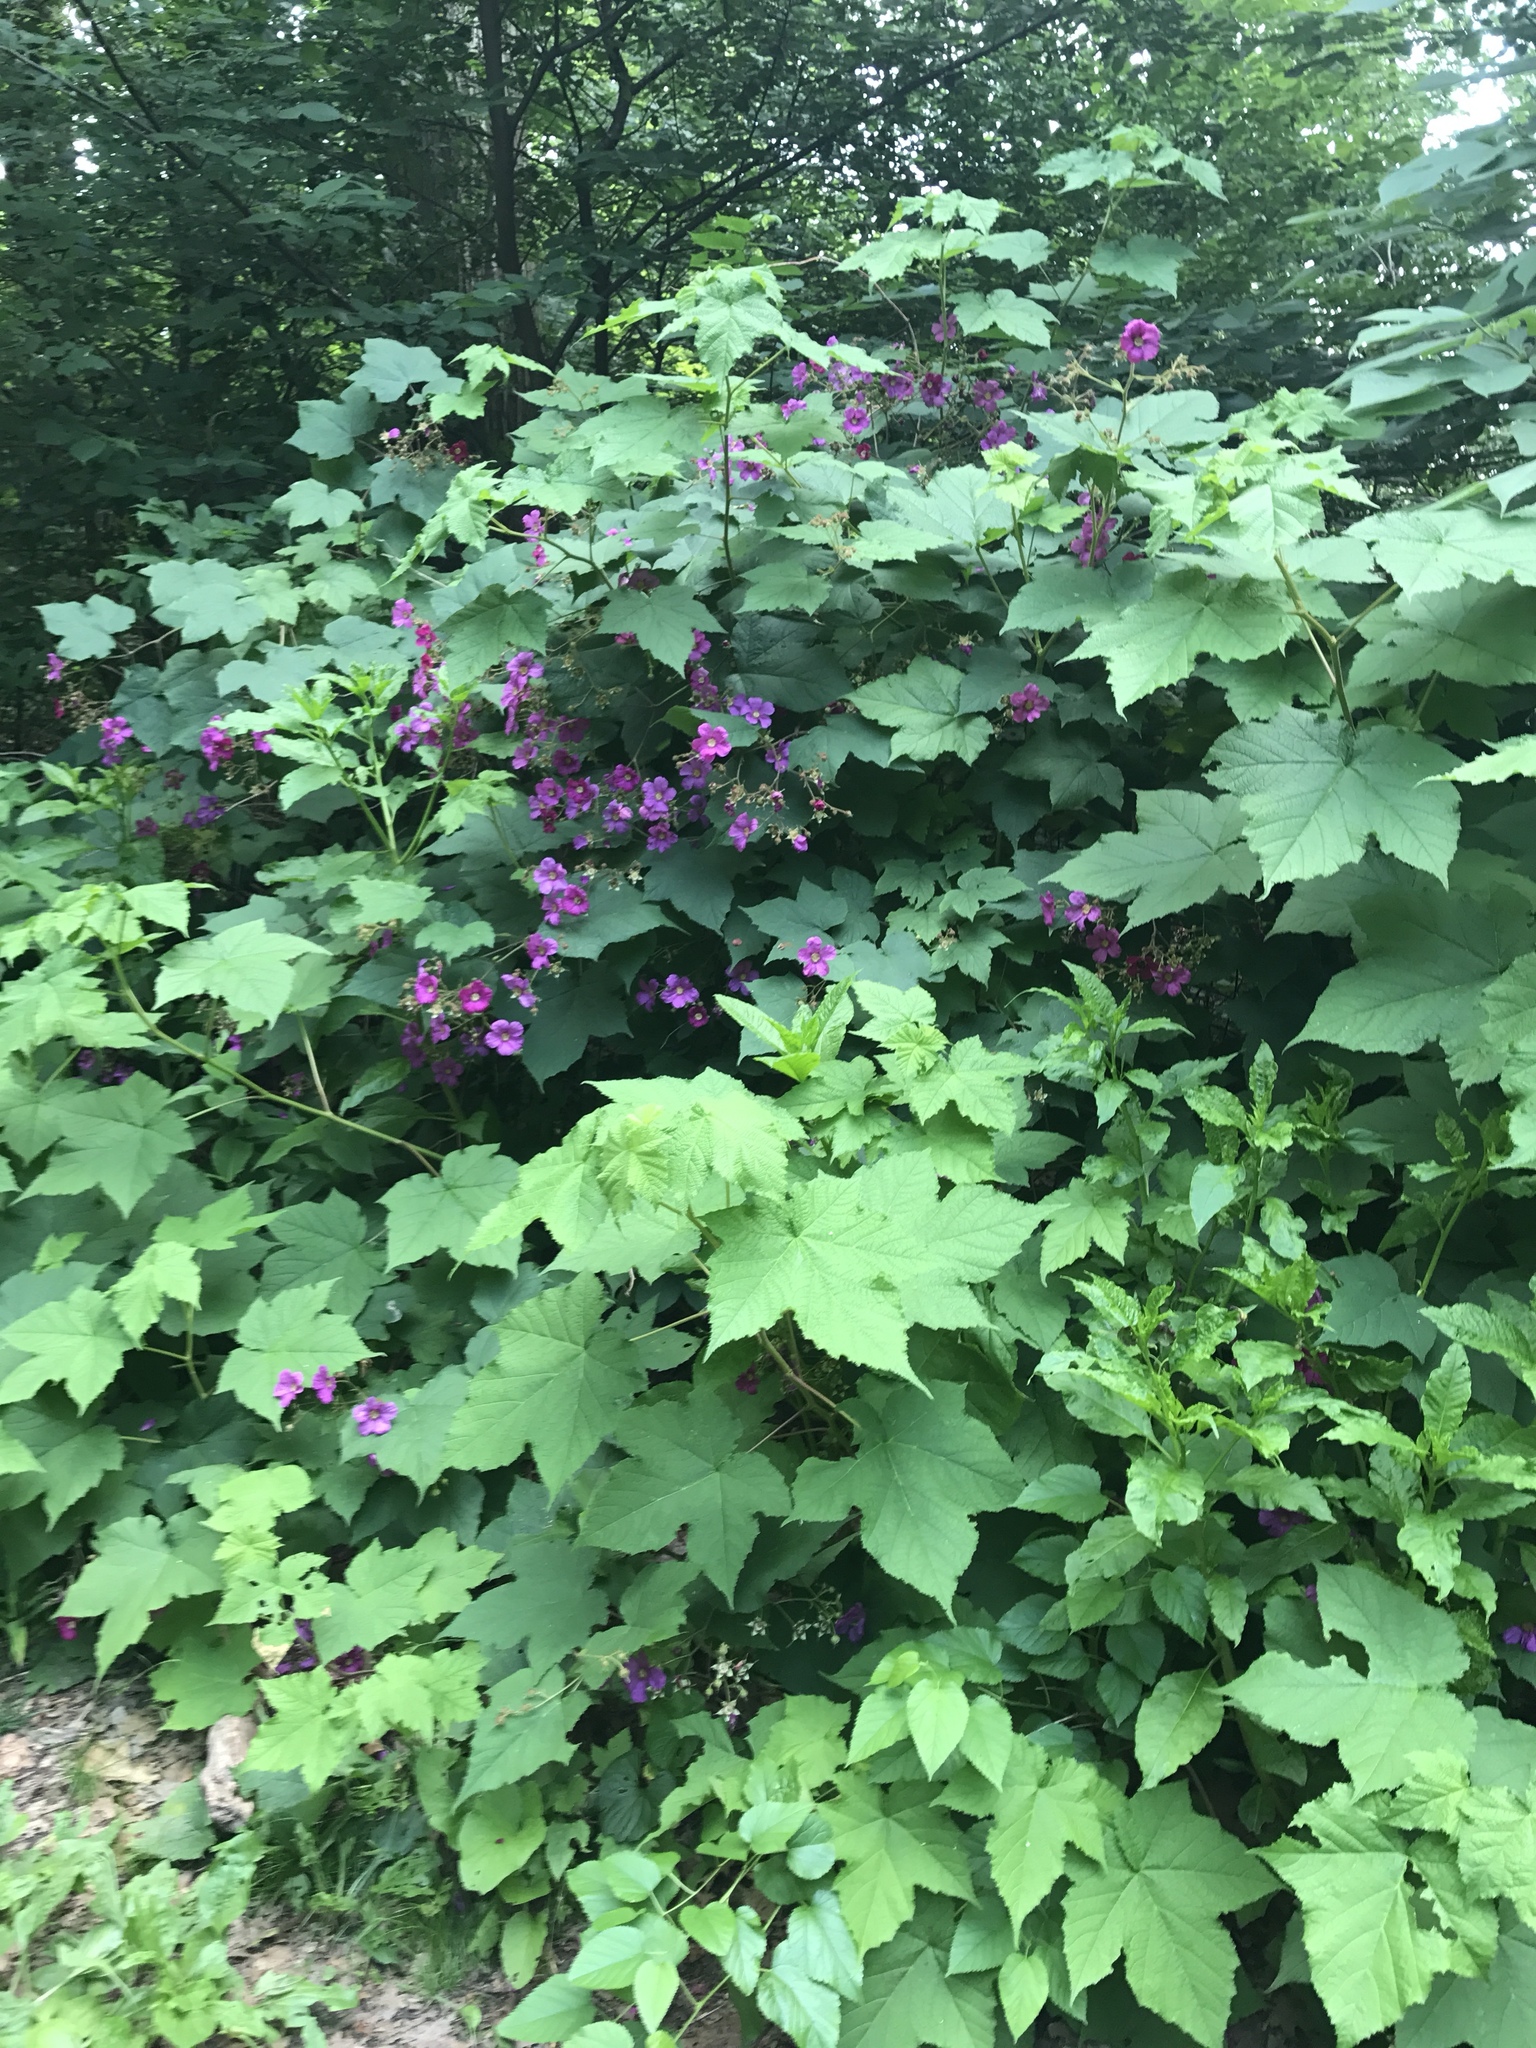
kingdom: Plantae
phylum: Tracheophyta
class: Magnoliopsida
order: Rosales
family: Rosaceae
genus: Rubus
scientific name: Rubus odoratus
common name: Purple-flowered raspberry
